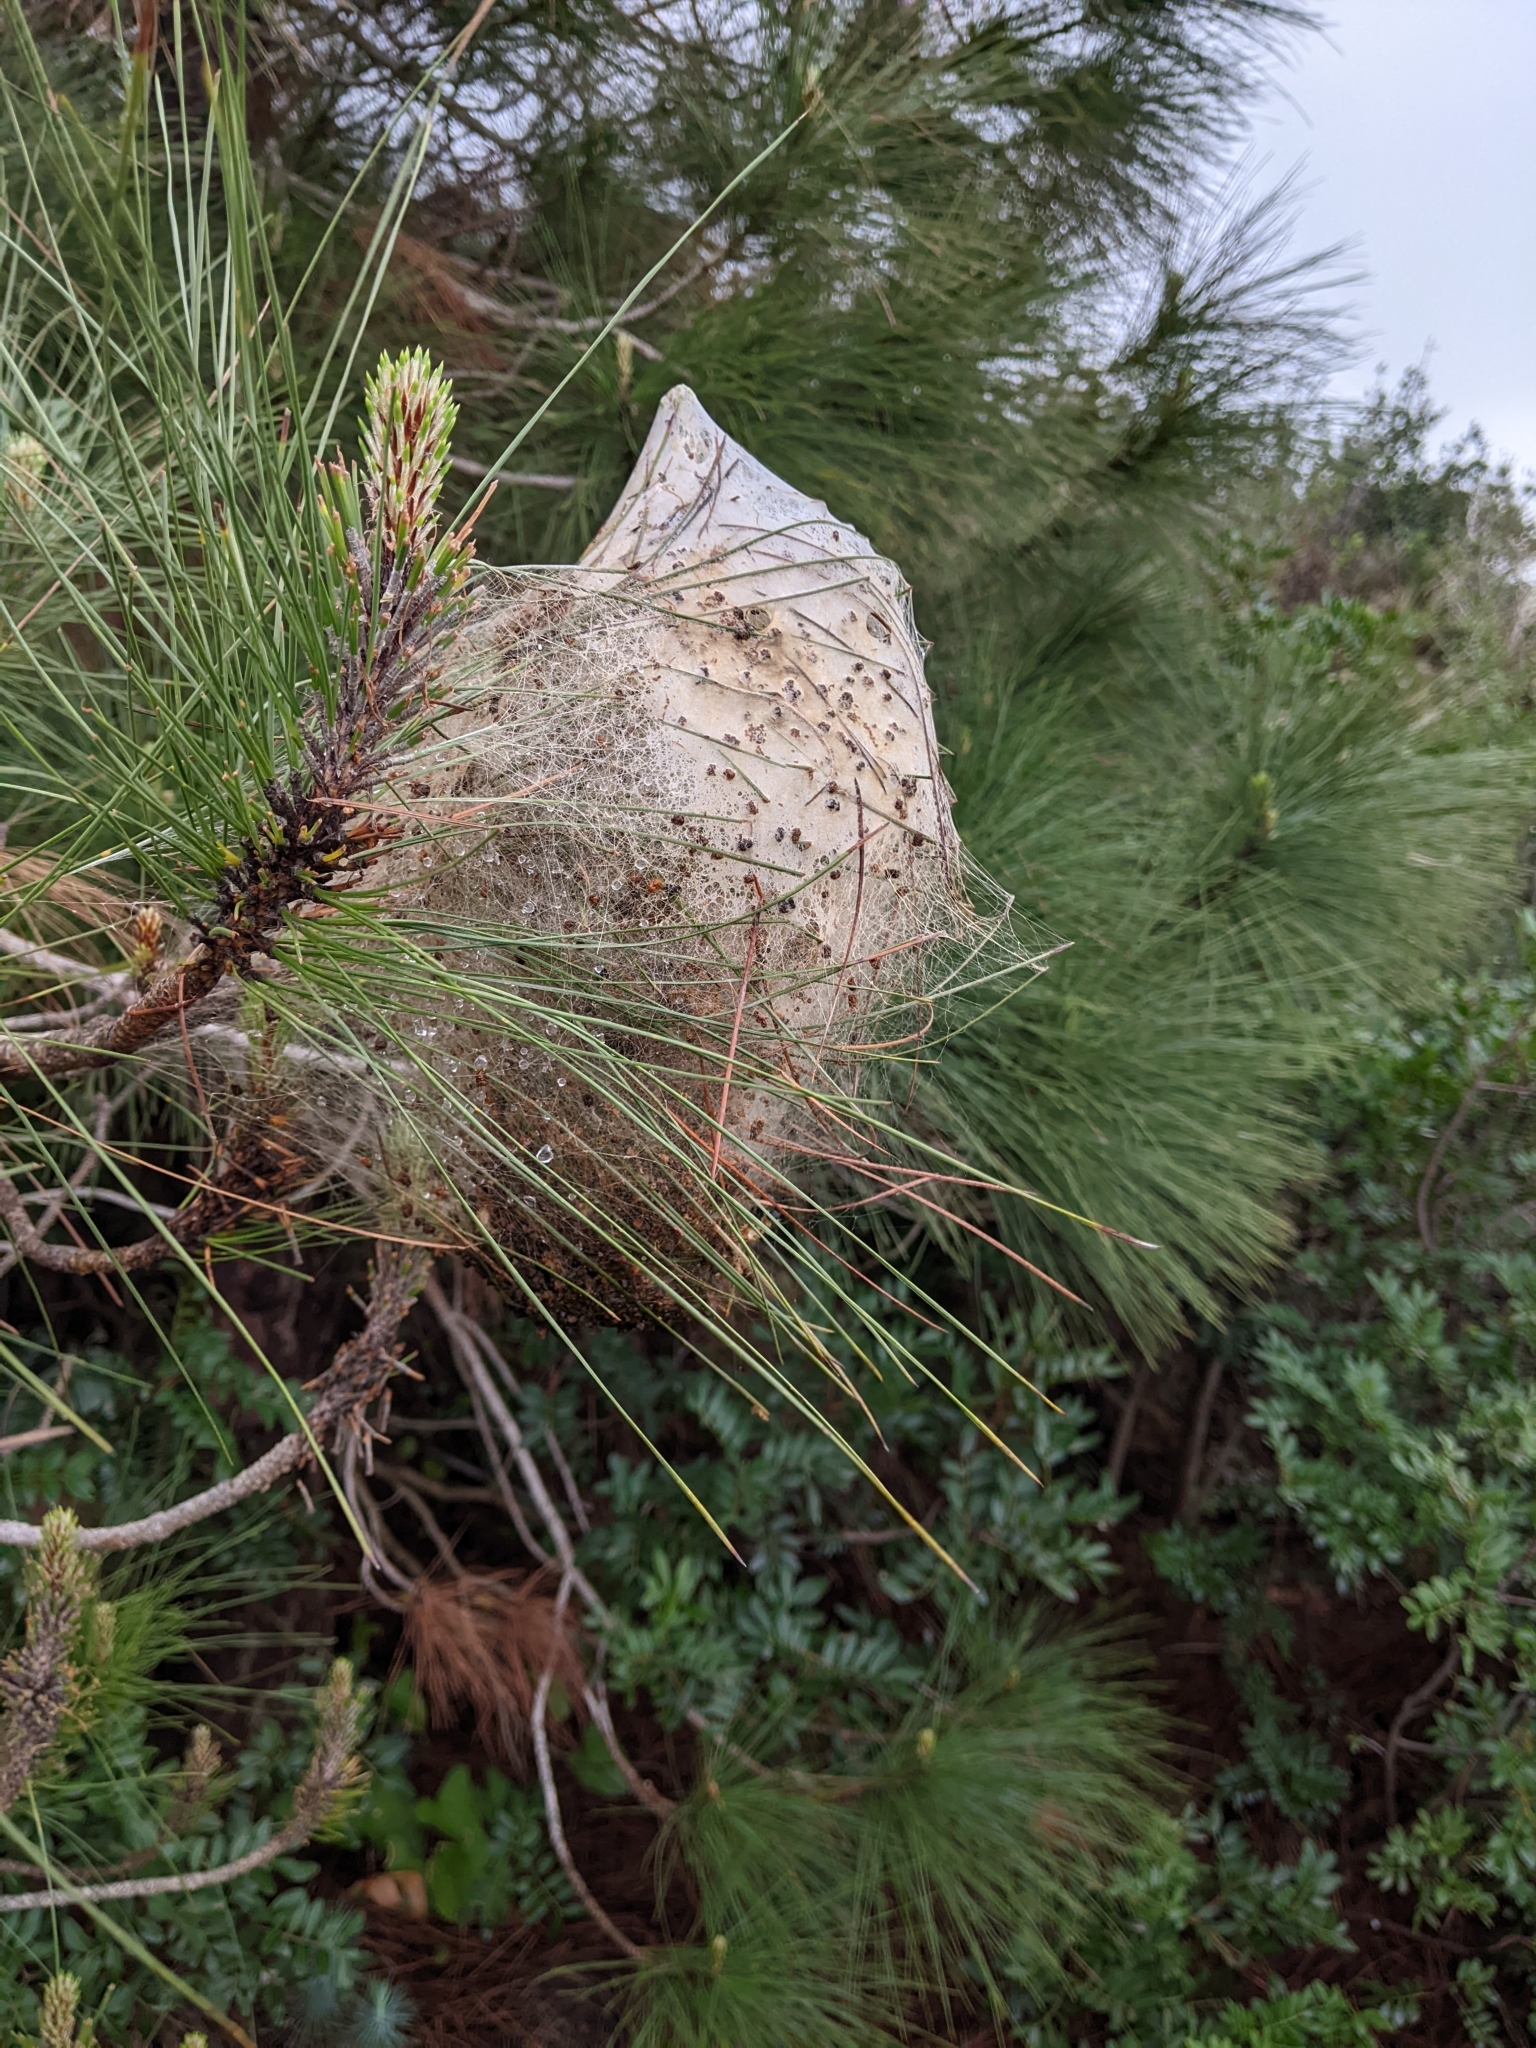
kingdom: Animalia
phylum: Arthropoda
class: Insecta
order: Lepidoptera
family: Notodontidae
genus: Thaumetopoea
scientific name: Thaumetopoea pityocampa
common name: Pine processionary
